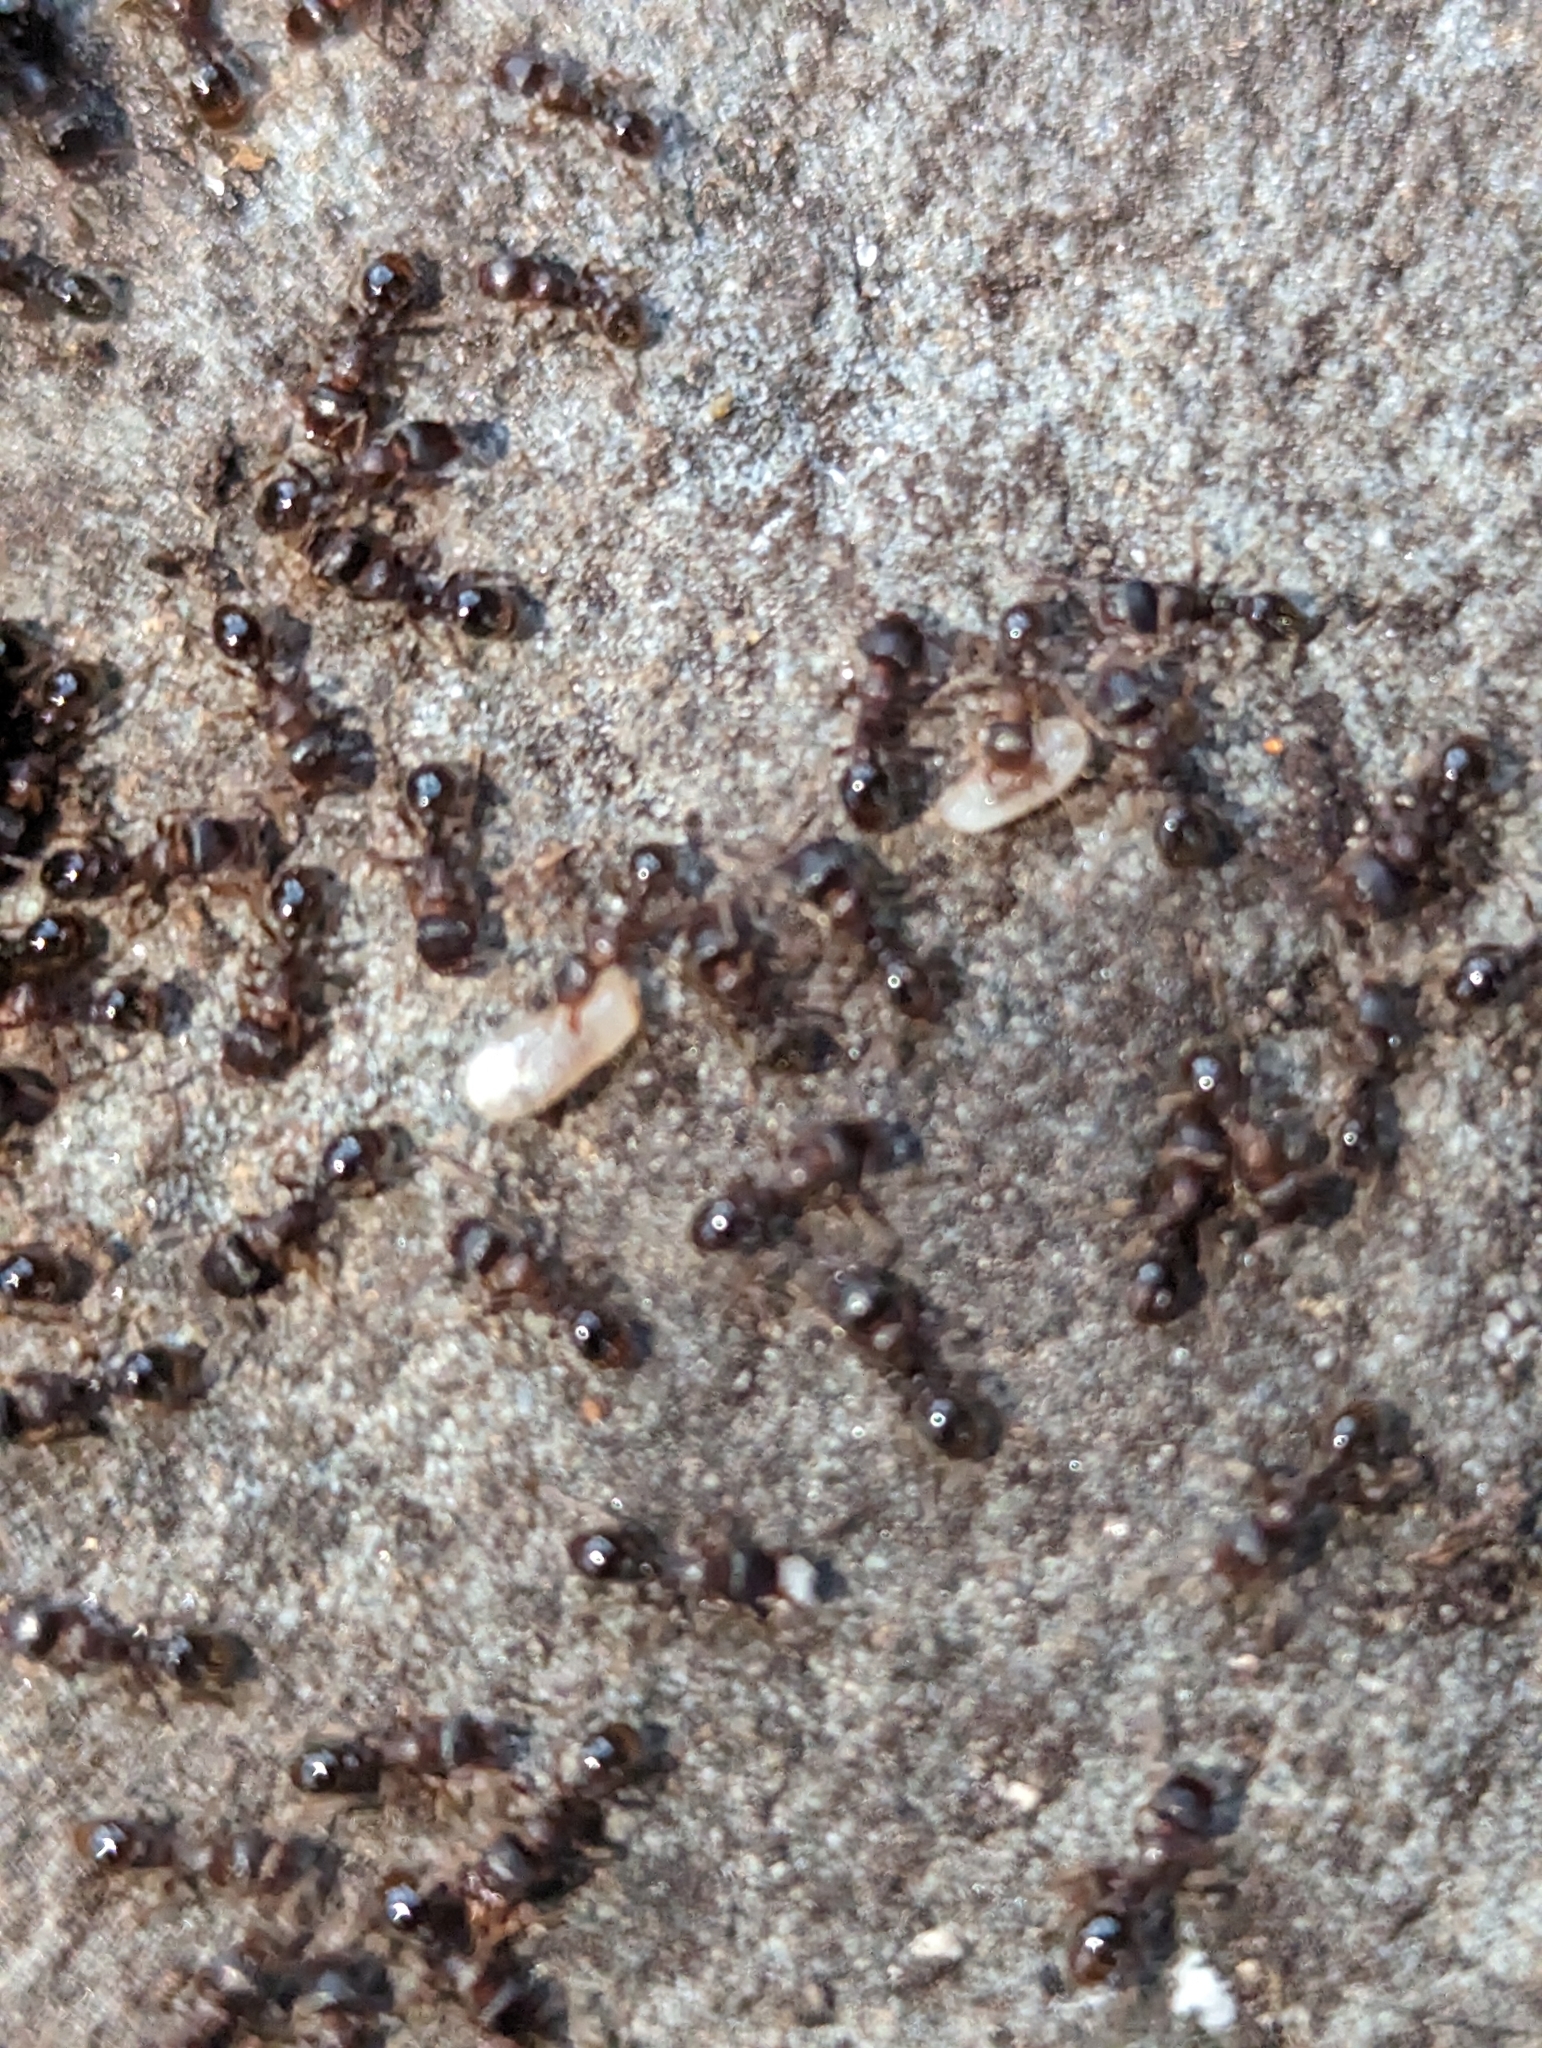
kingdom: Animalia
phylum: Arthropoda
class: Insecta
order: Hymenoptera
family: Formicidae
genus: Tetramorium
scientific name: Tetramorium immigrans
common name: Pavement ant
